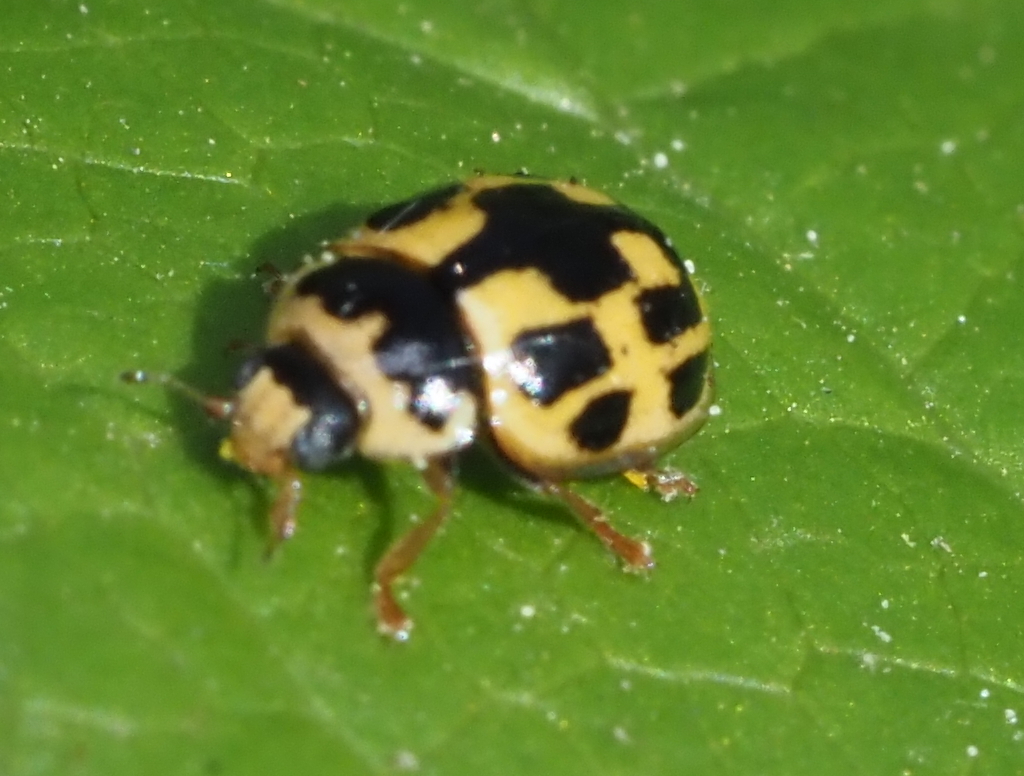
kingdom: Animalia
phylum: Arthropoda
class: Insecta
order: Coleoptera
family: Coccinellidae
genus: Propylaea
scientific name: Propylaea quatuordecimpunctata
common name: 14-spotted ladybird beetle
